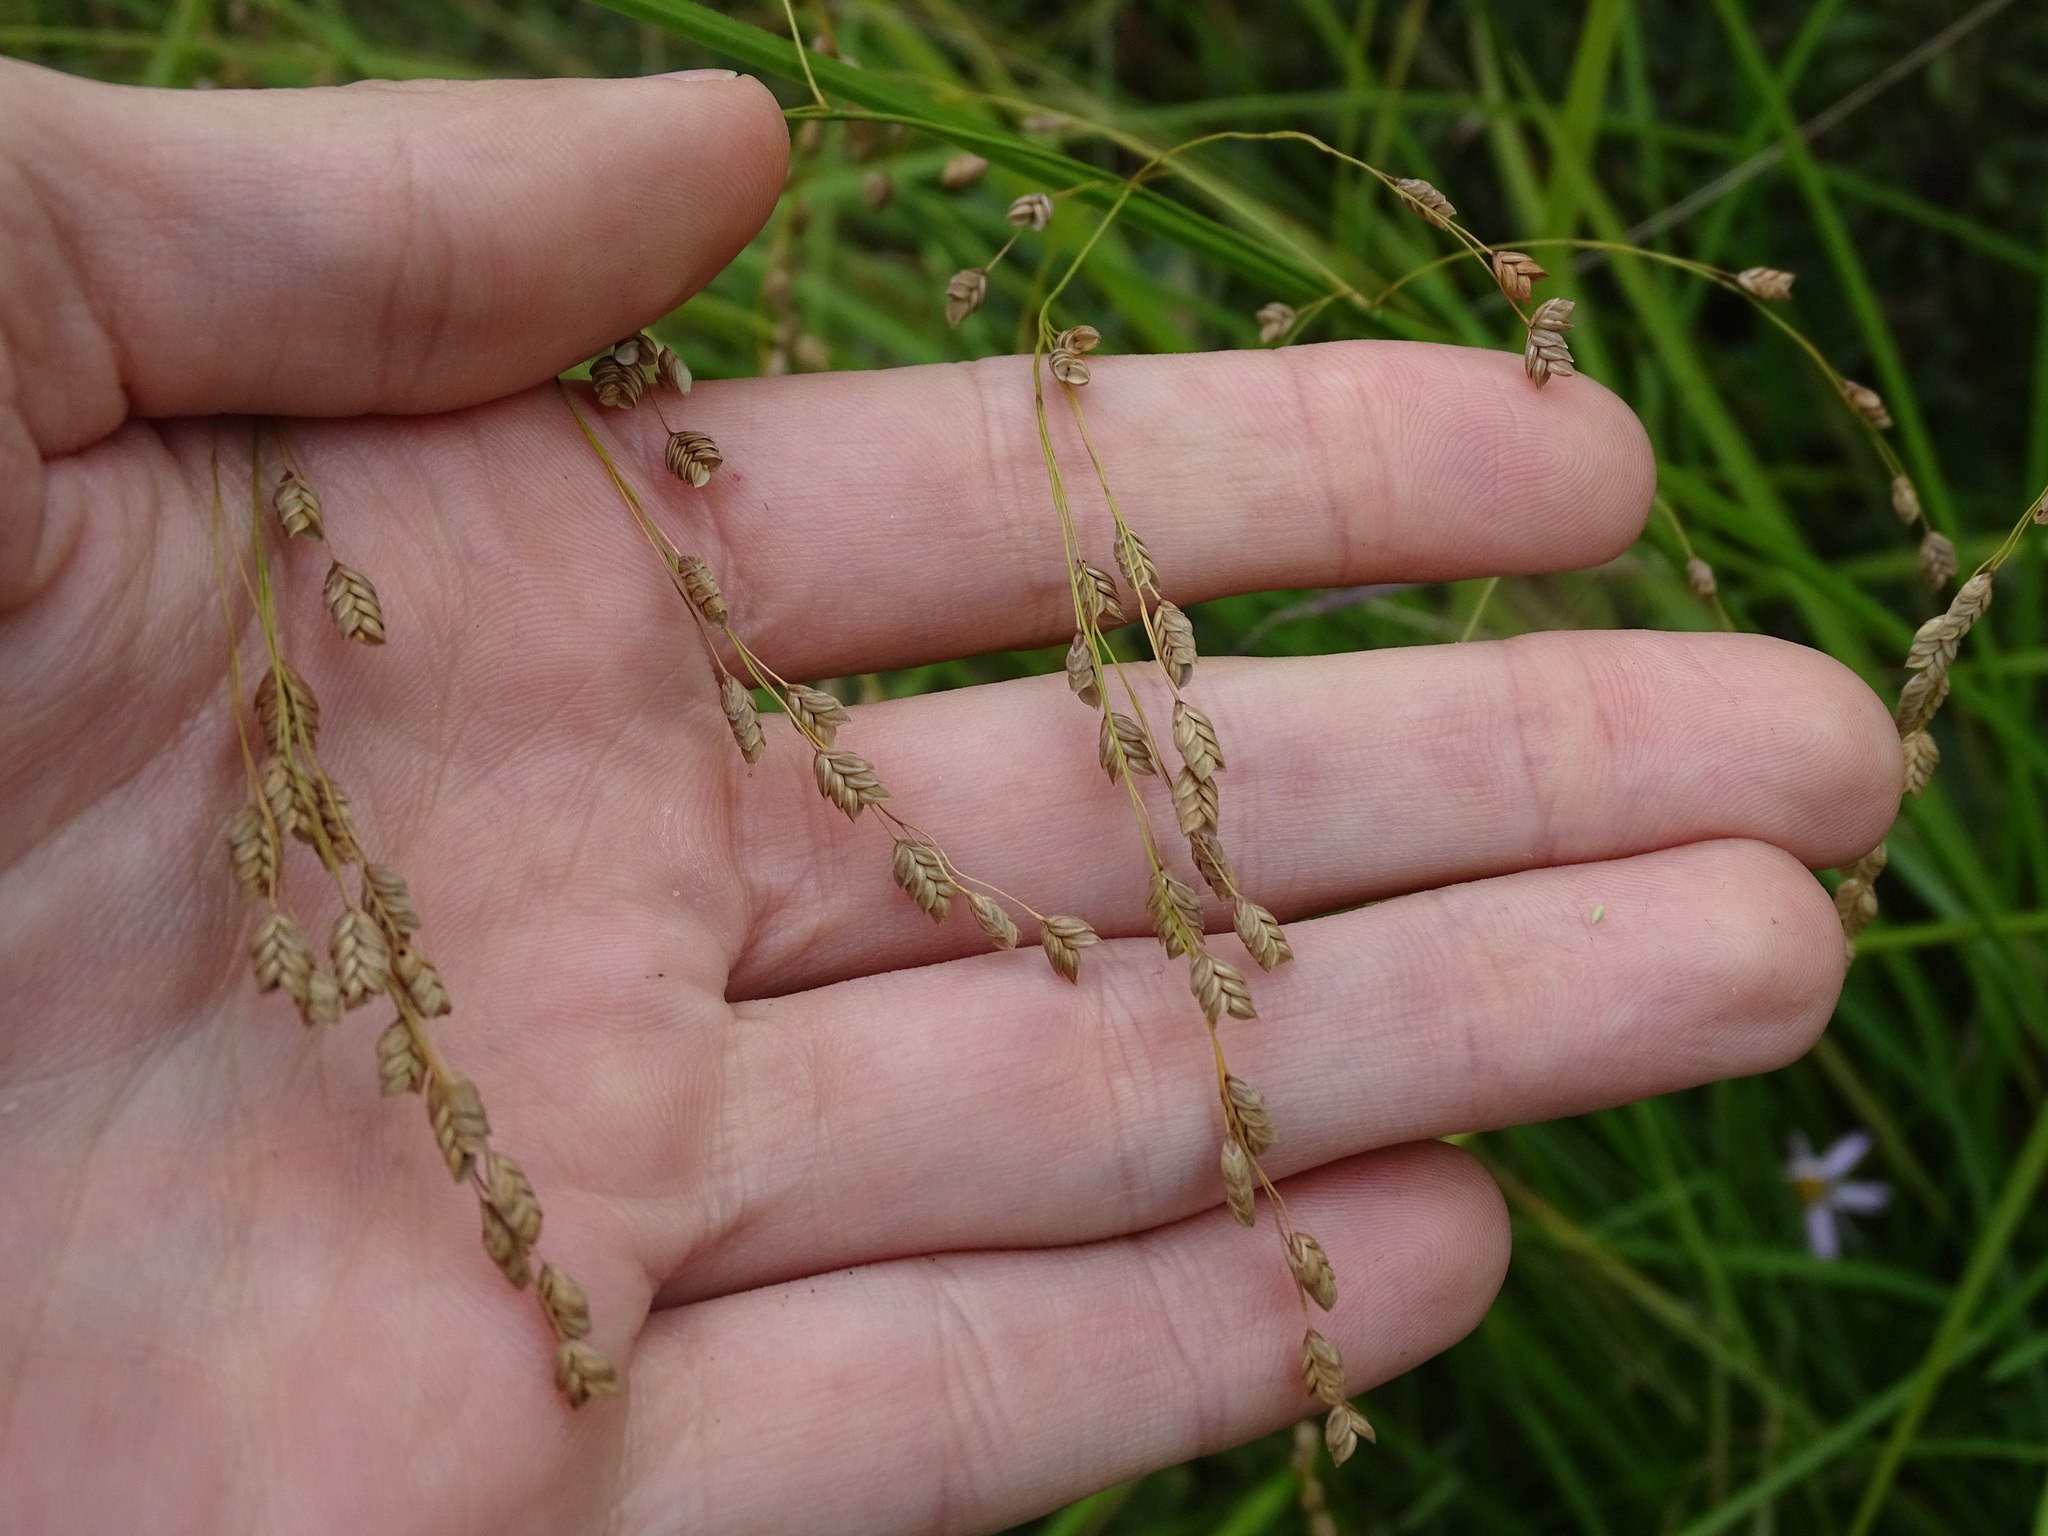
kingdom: Plantae
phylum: Tracheophyta
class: Liliopsida
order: Poales
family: Poaceae
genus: Glyceria
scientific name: Glyceria canadensis
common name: Canada mannagrass
